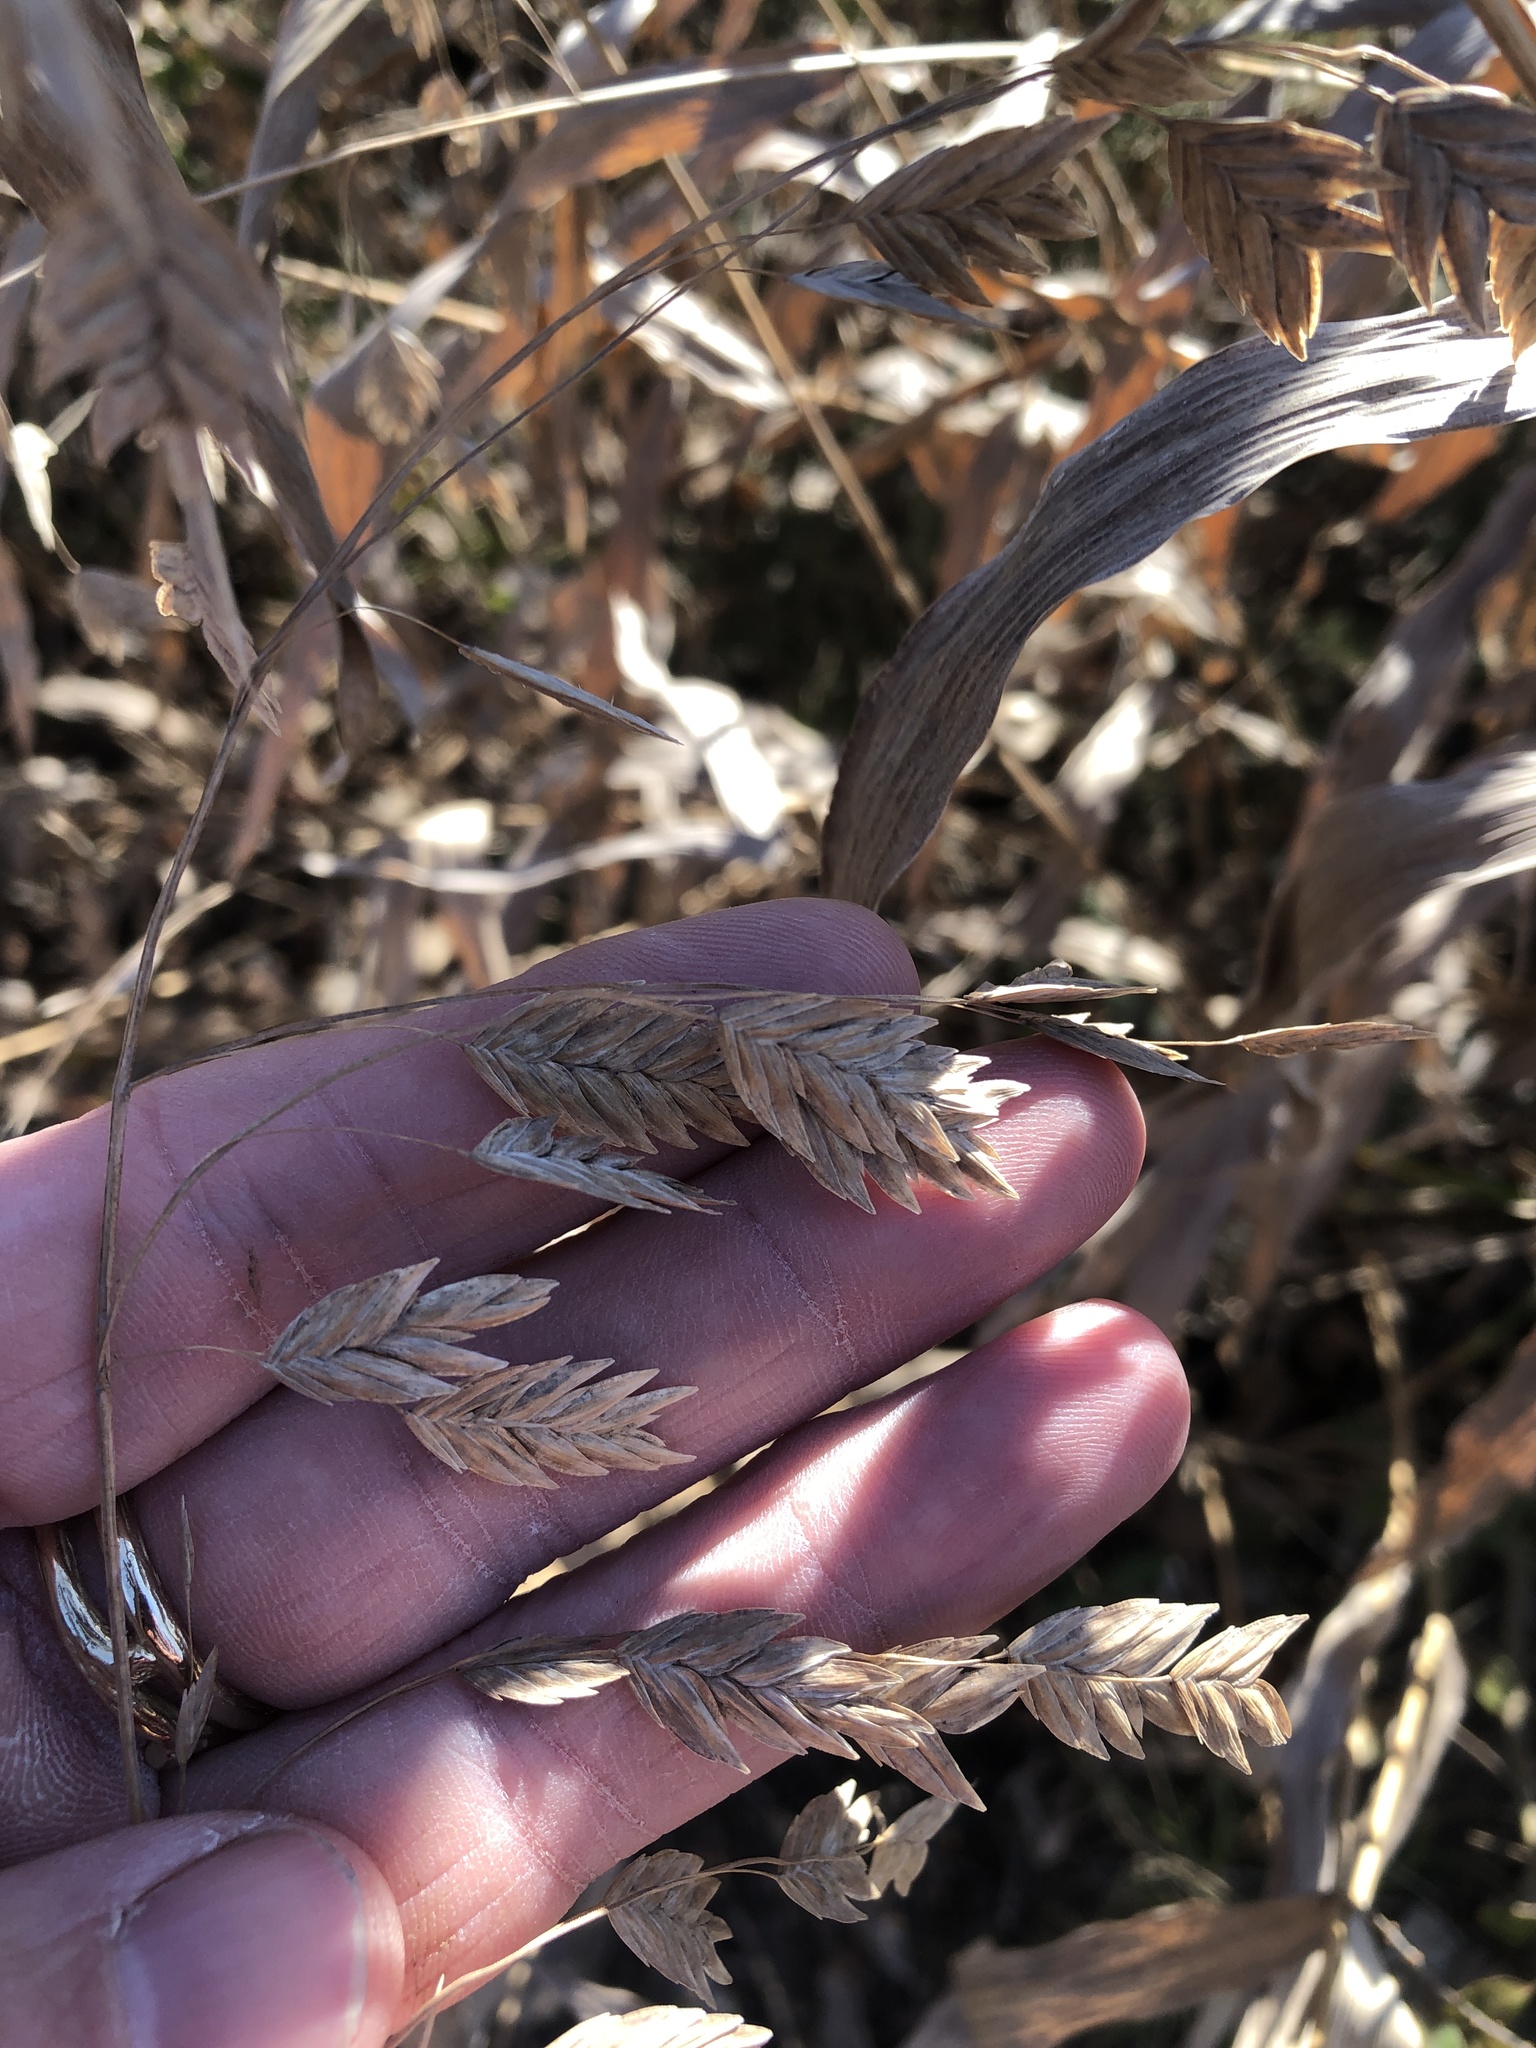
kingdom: Plantae
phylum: Tracheophyta
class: Liliopsida
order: Poales
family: Poaceae
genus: Chasmanthium
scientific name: Chasmanthium latifolium
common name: Broad-leaved chasmanthium
